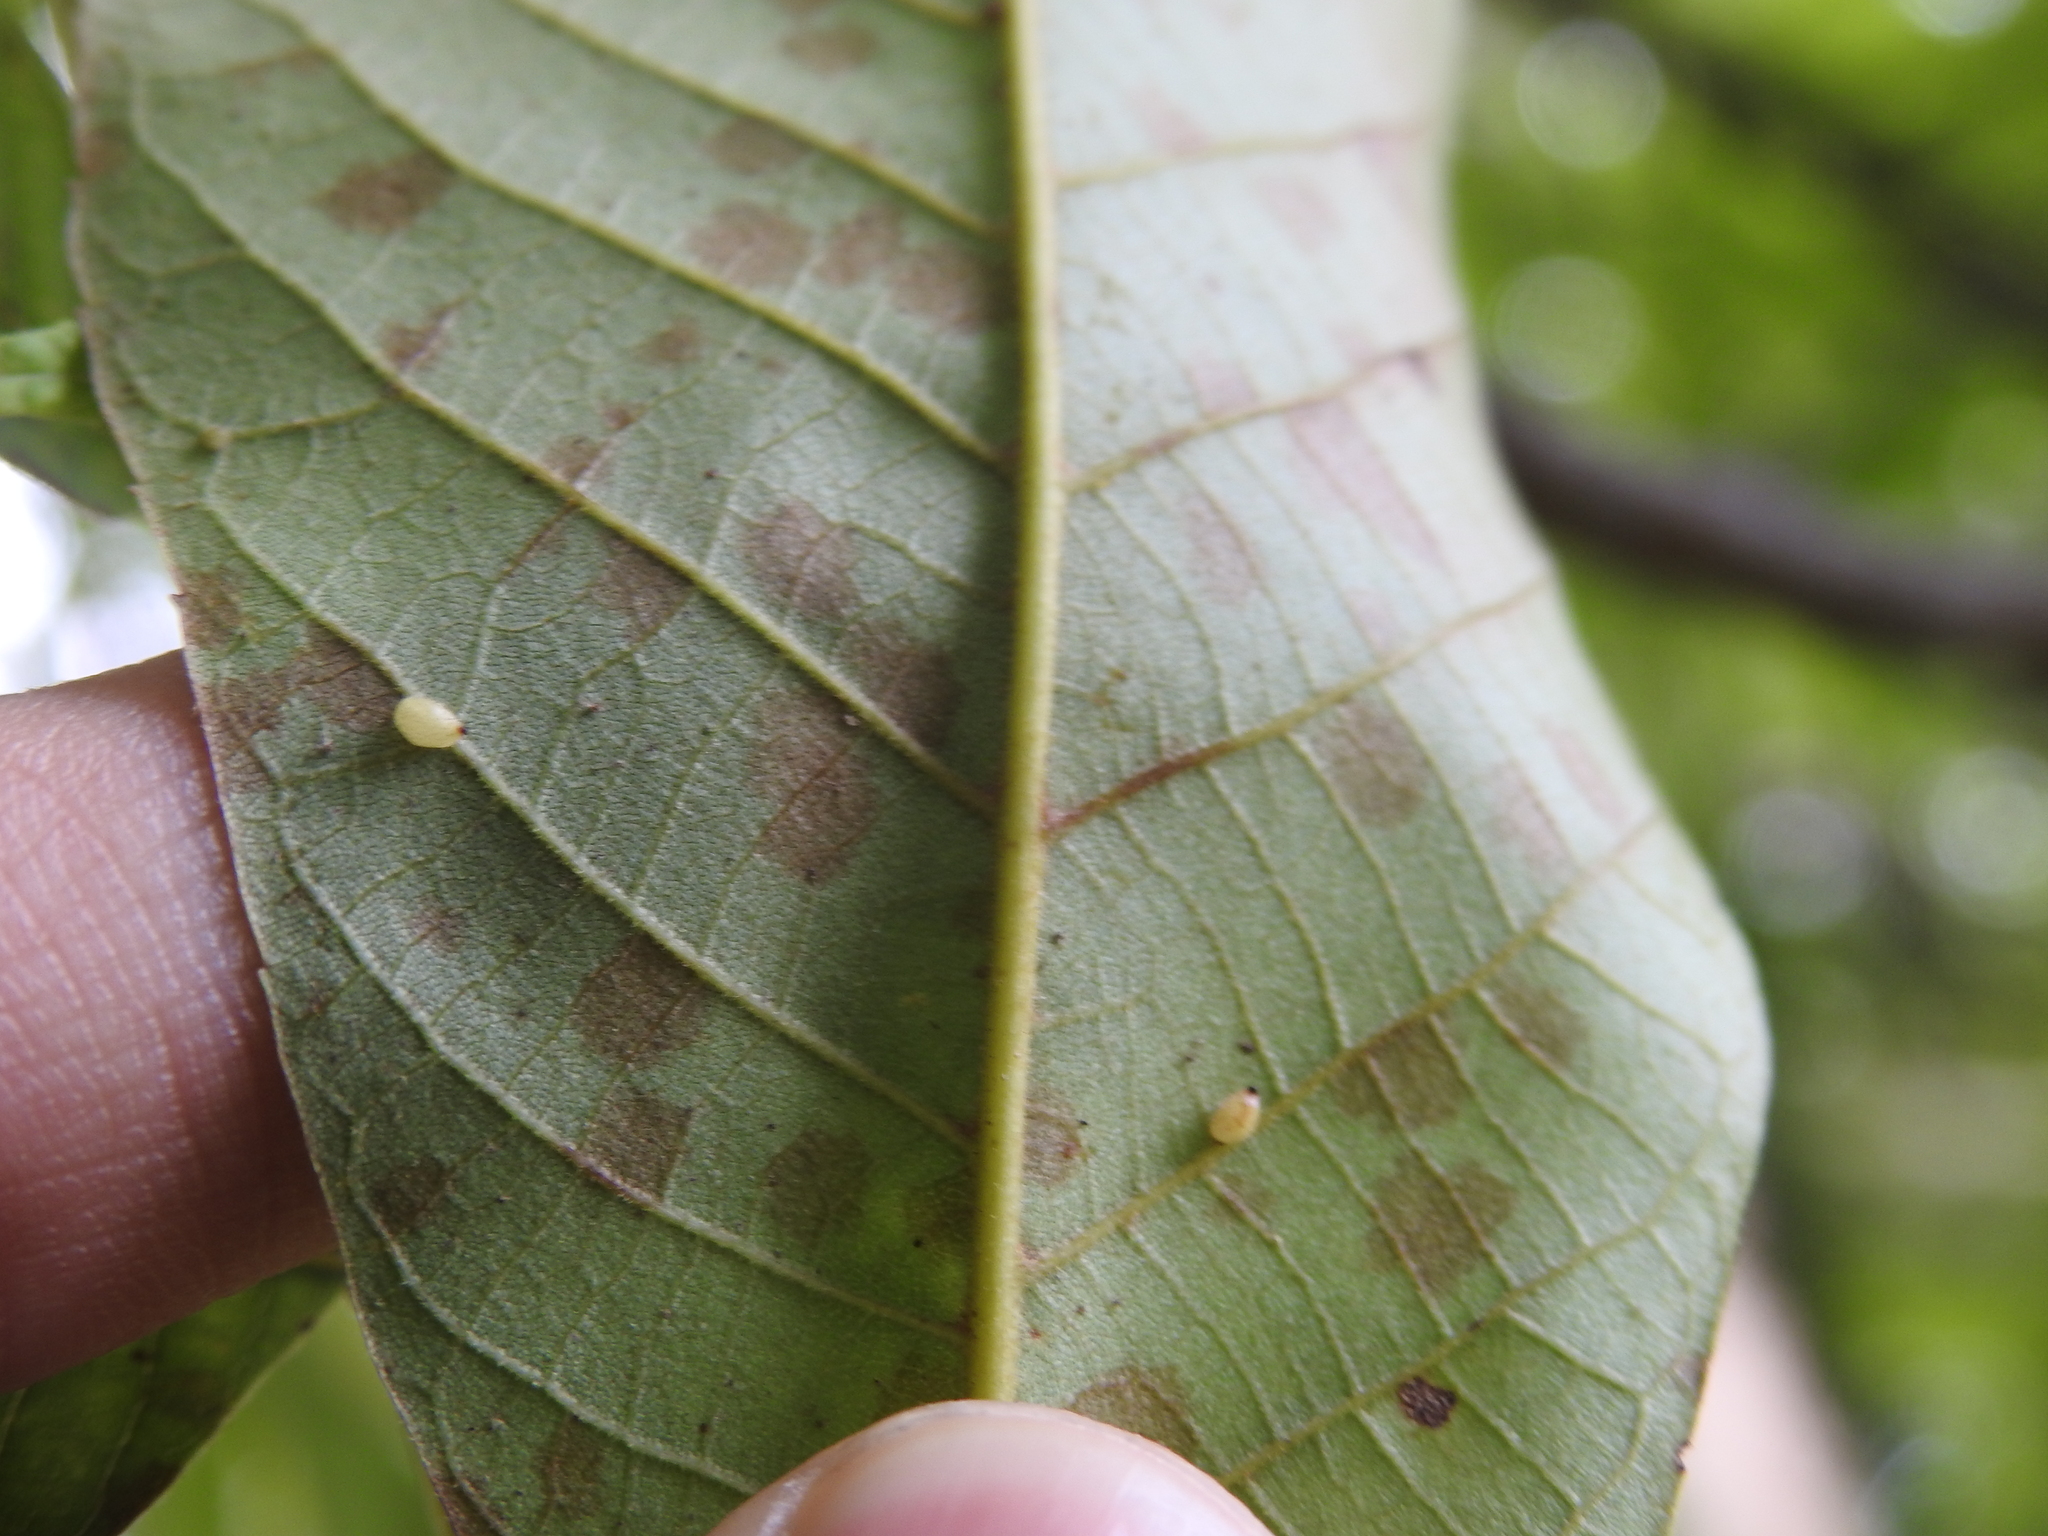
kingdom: Animalia
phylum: Arthropoda
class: Insecta
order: Diptera
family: Cecidomyiidae
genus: Caryomyia
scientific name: Caryomyia eumaris
